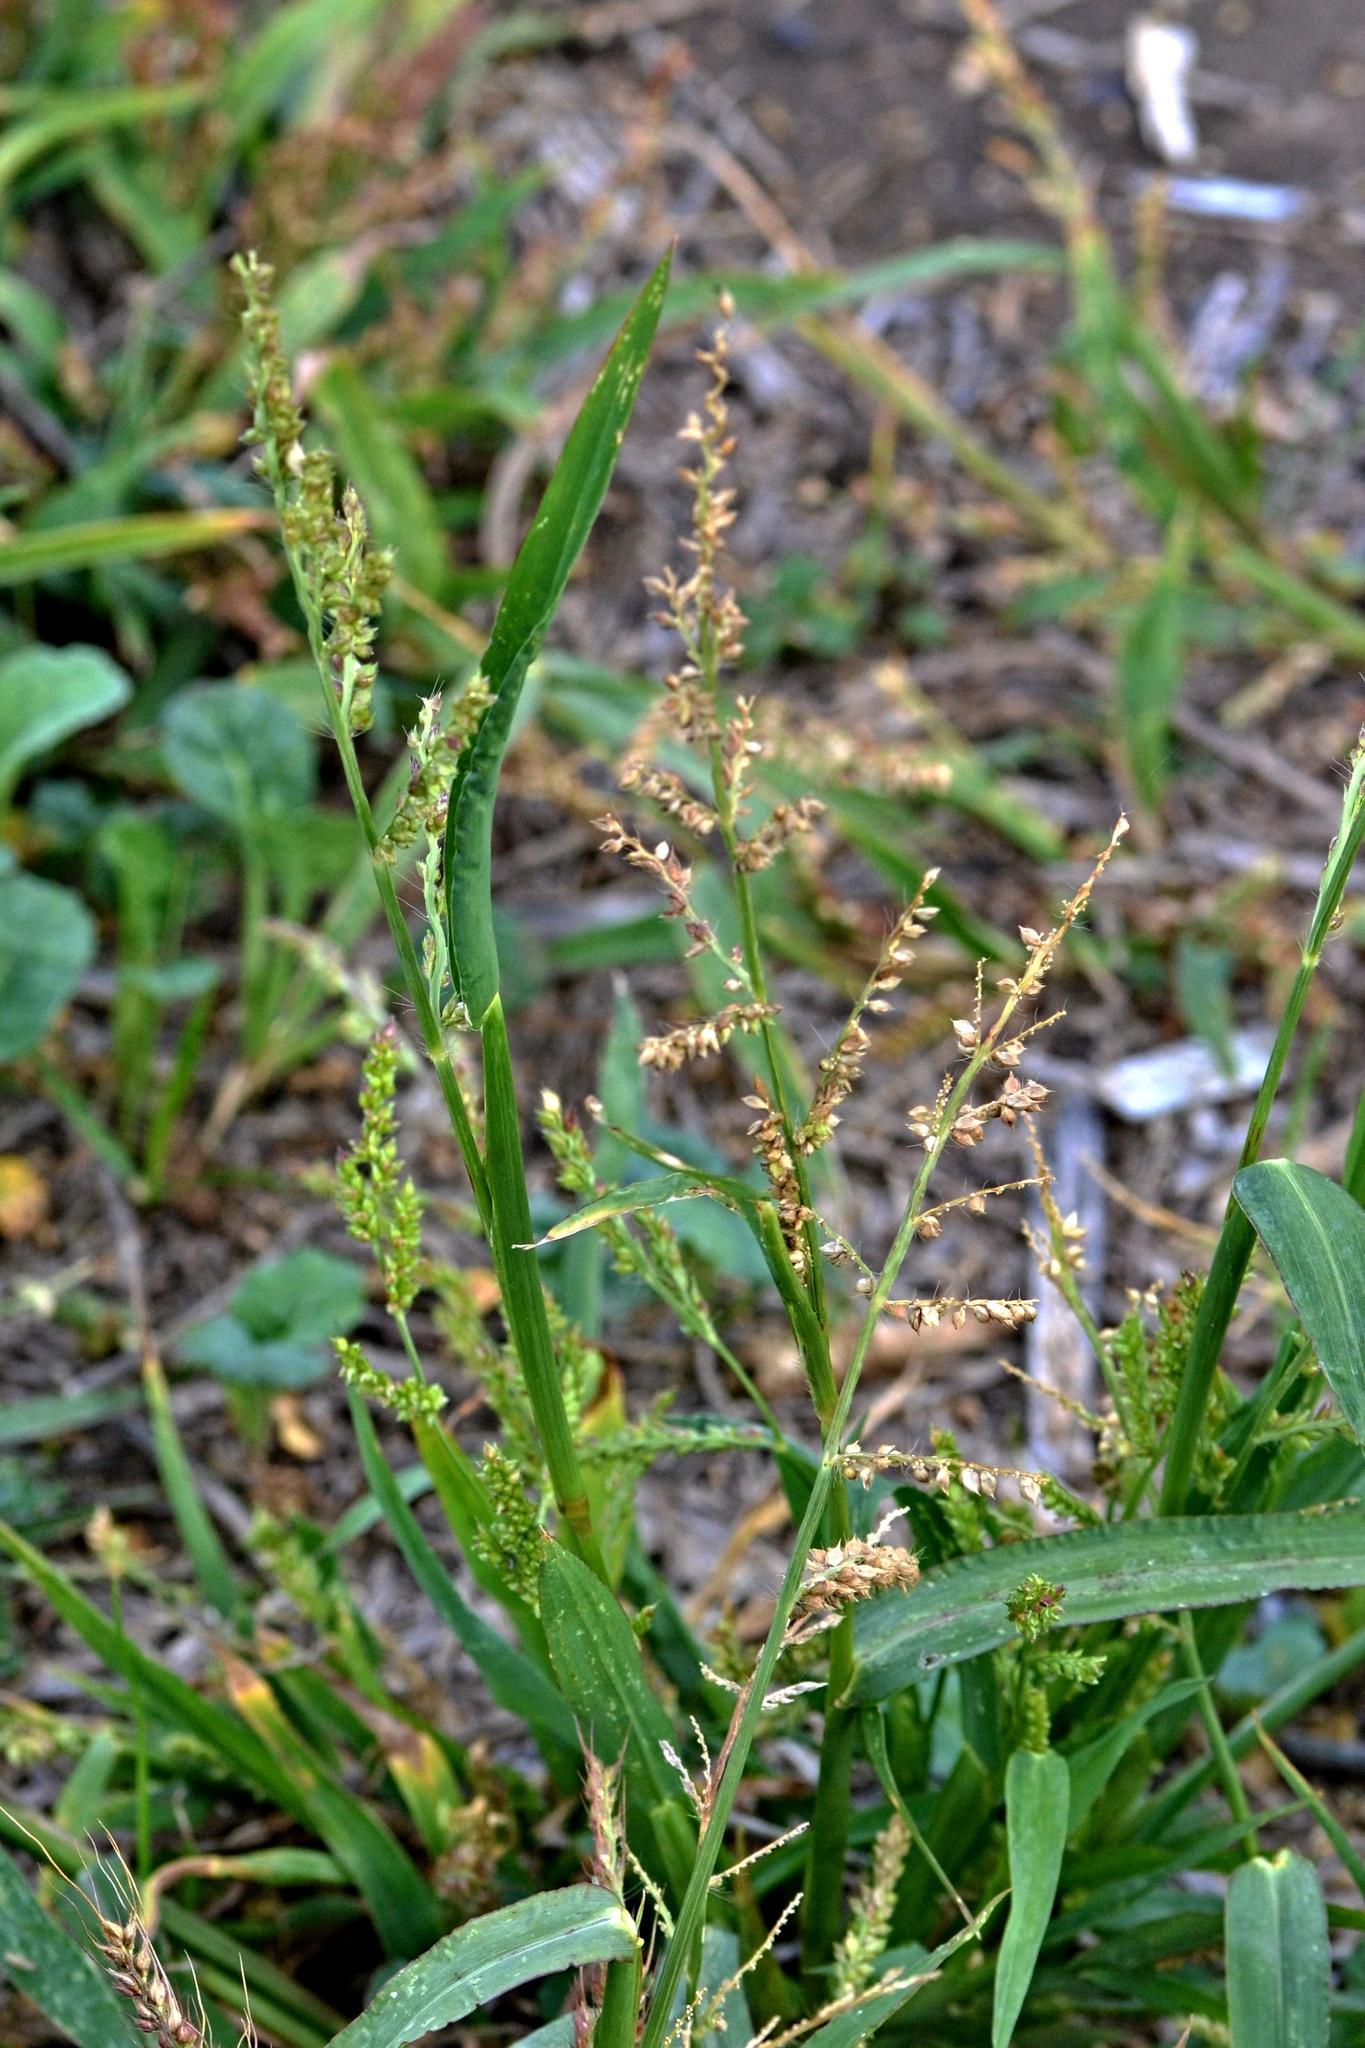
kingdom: Plantae
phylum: Tracheophyta
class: Liliopsida
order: Poales
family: Poaceae
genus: Echinochloa
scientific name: Echinochloa crus-galli
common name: Cockspur
